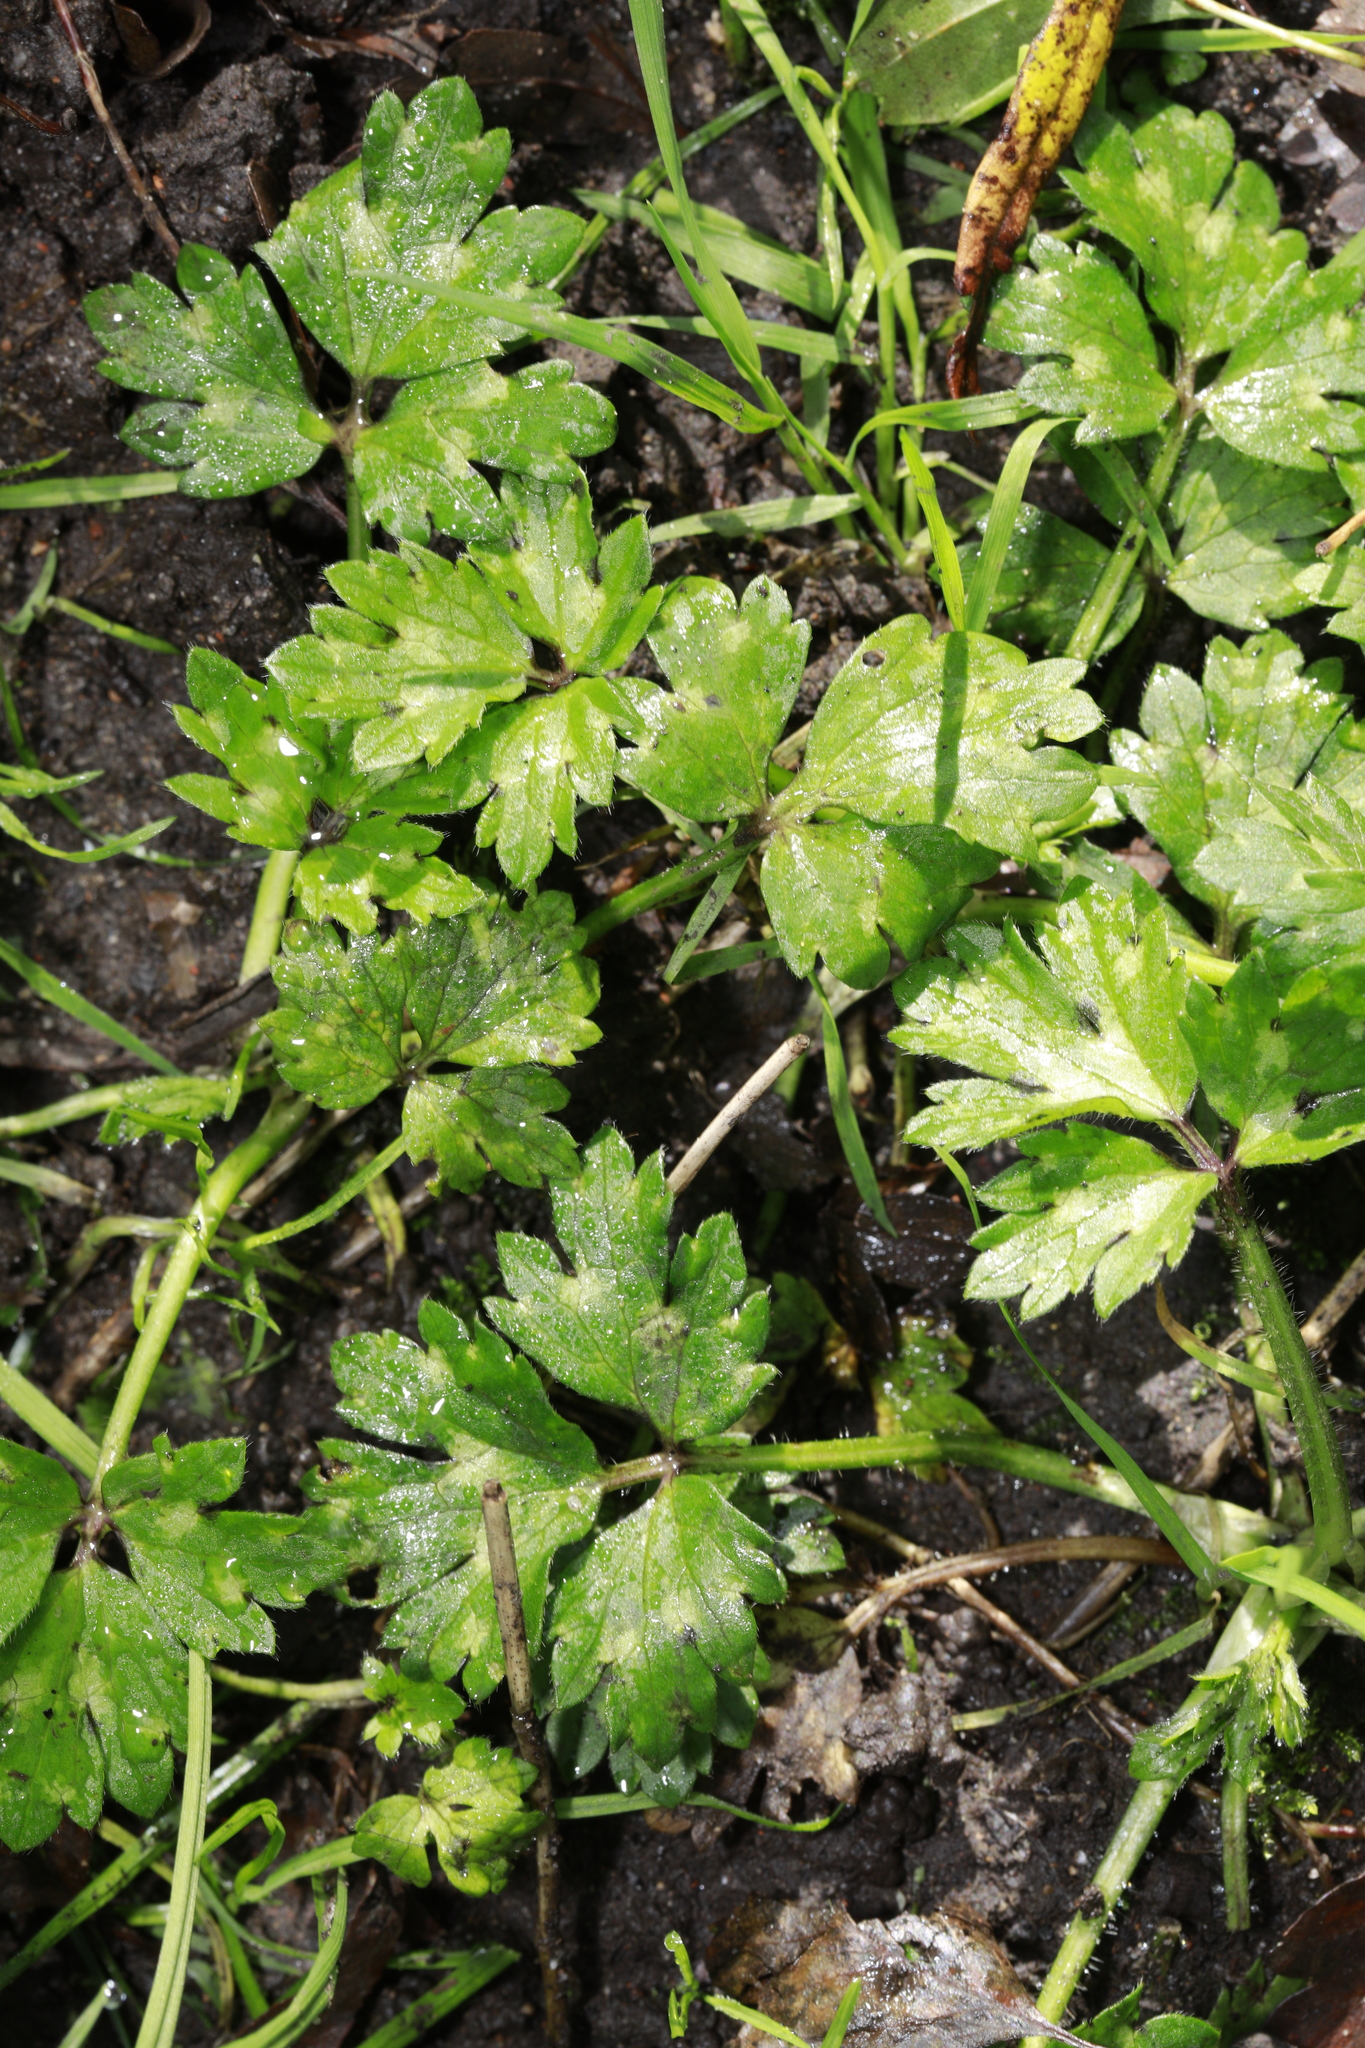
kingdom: Plantae
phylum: Tracheophyta
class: Magnoliopsida
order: Ranunculales
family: Ranunculaceae
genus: Ranunculus
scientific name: Ranunculus repens
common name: Creeping buttercup
